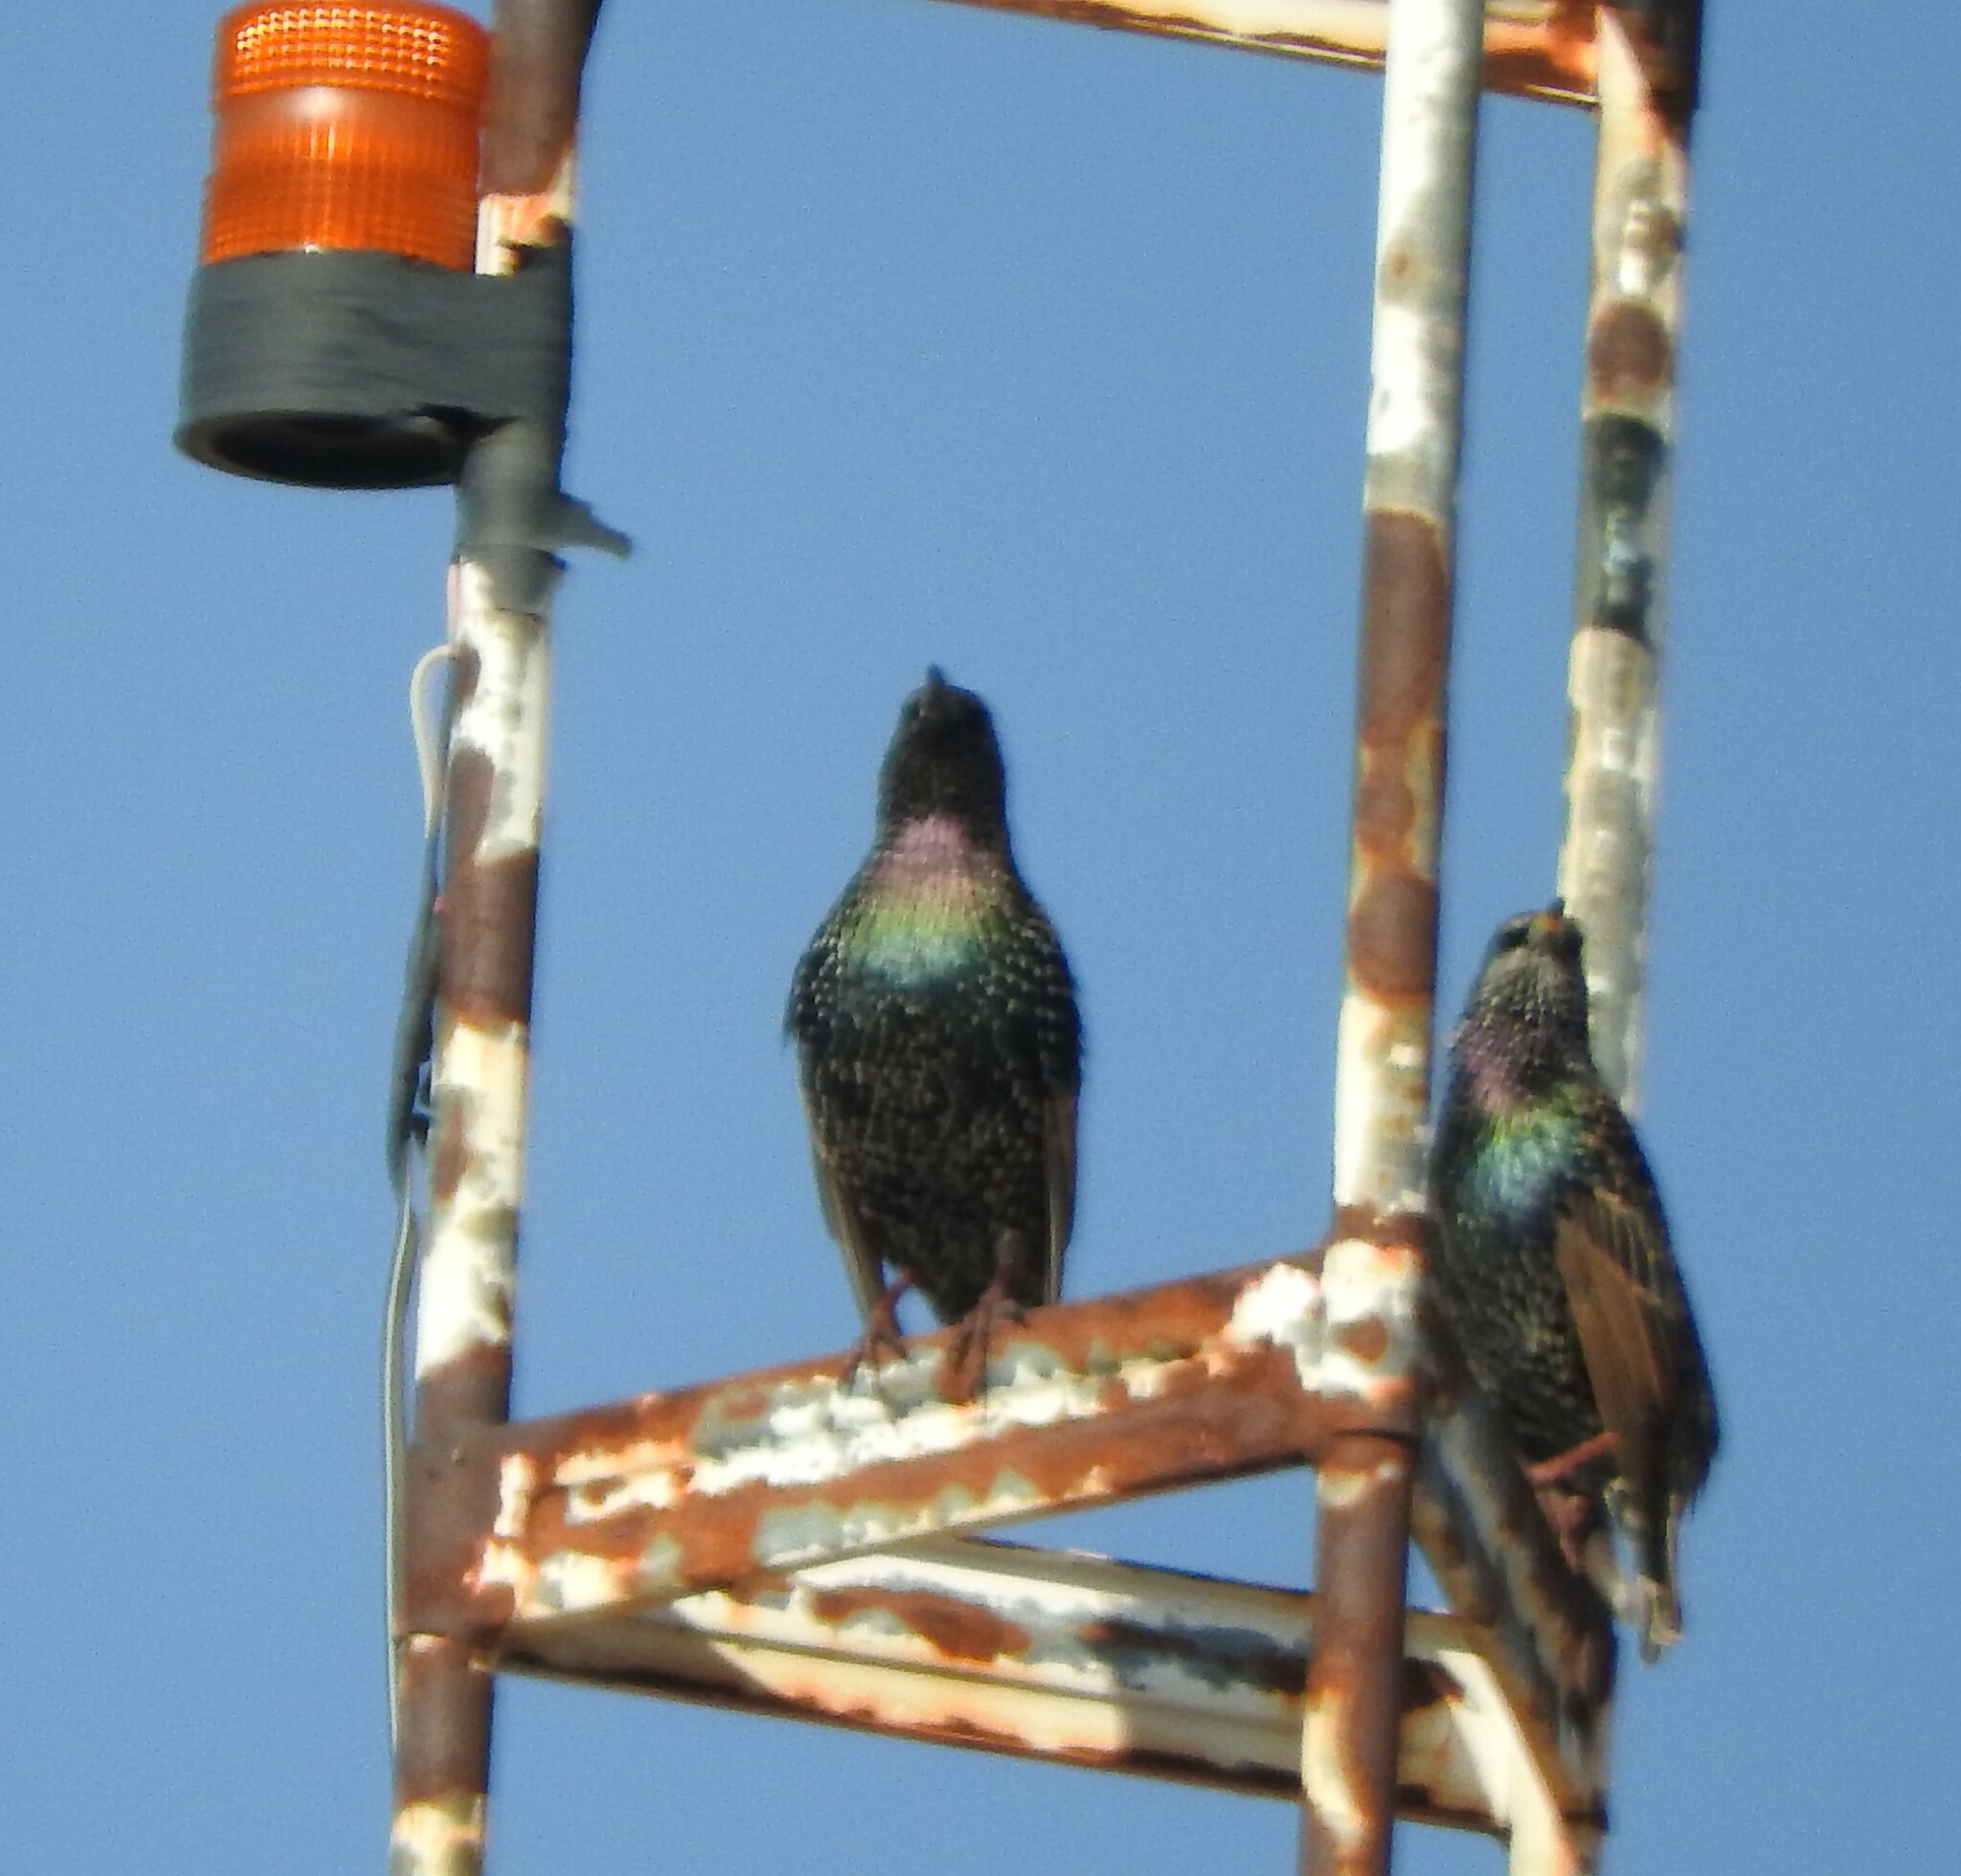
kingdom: Animalia
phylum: Chordata
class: Aves
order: Passeriformes
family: Sturnidae
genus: Sturnus
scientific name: Sturnus vulgaris
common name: Common starling
